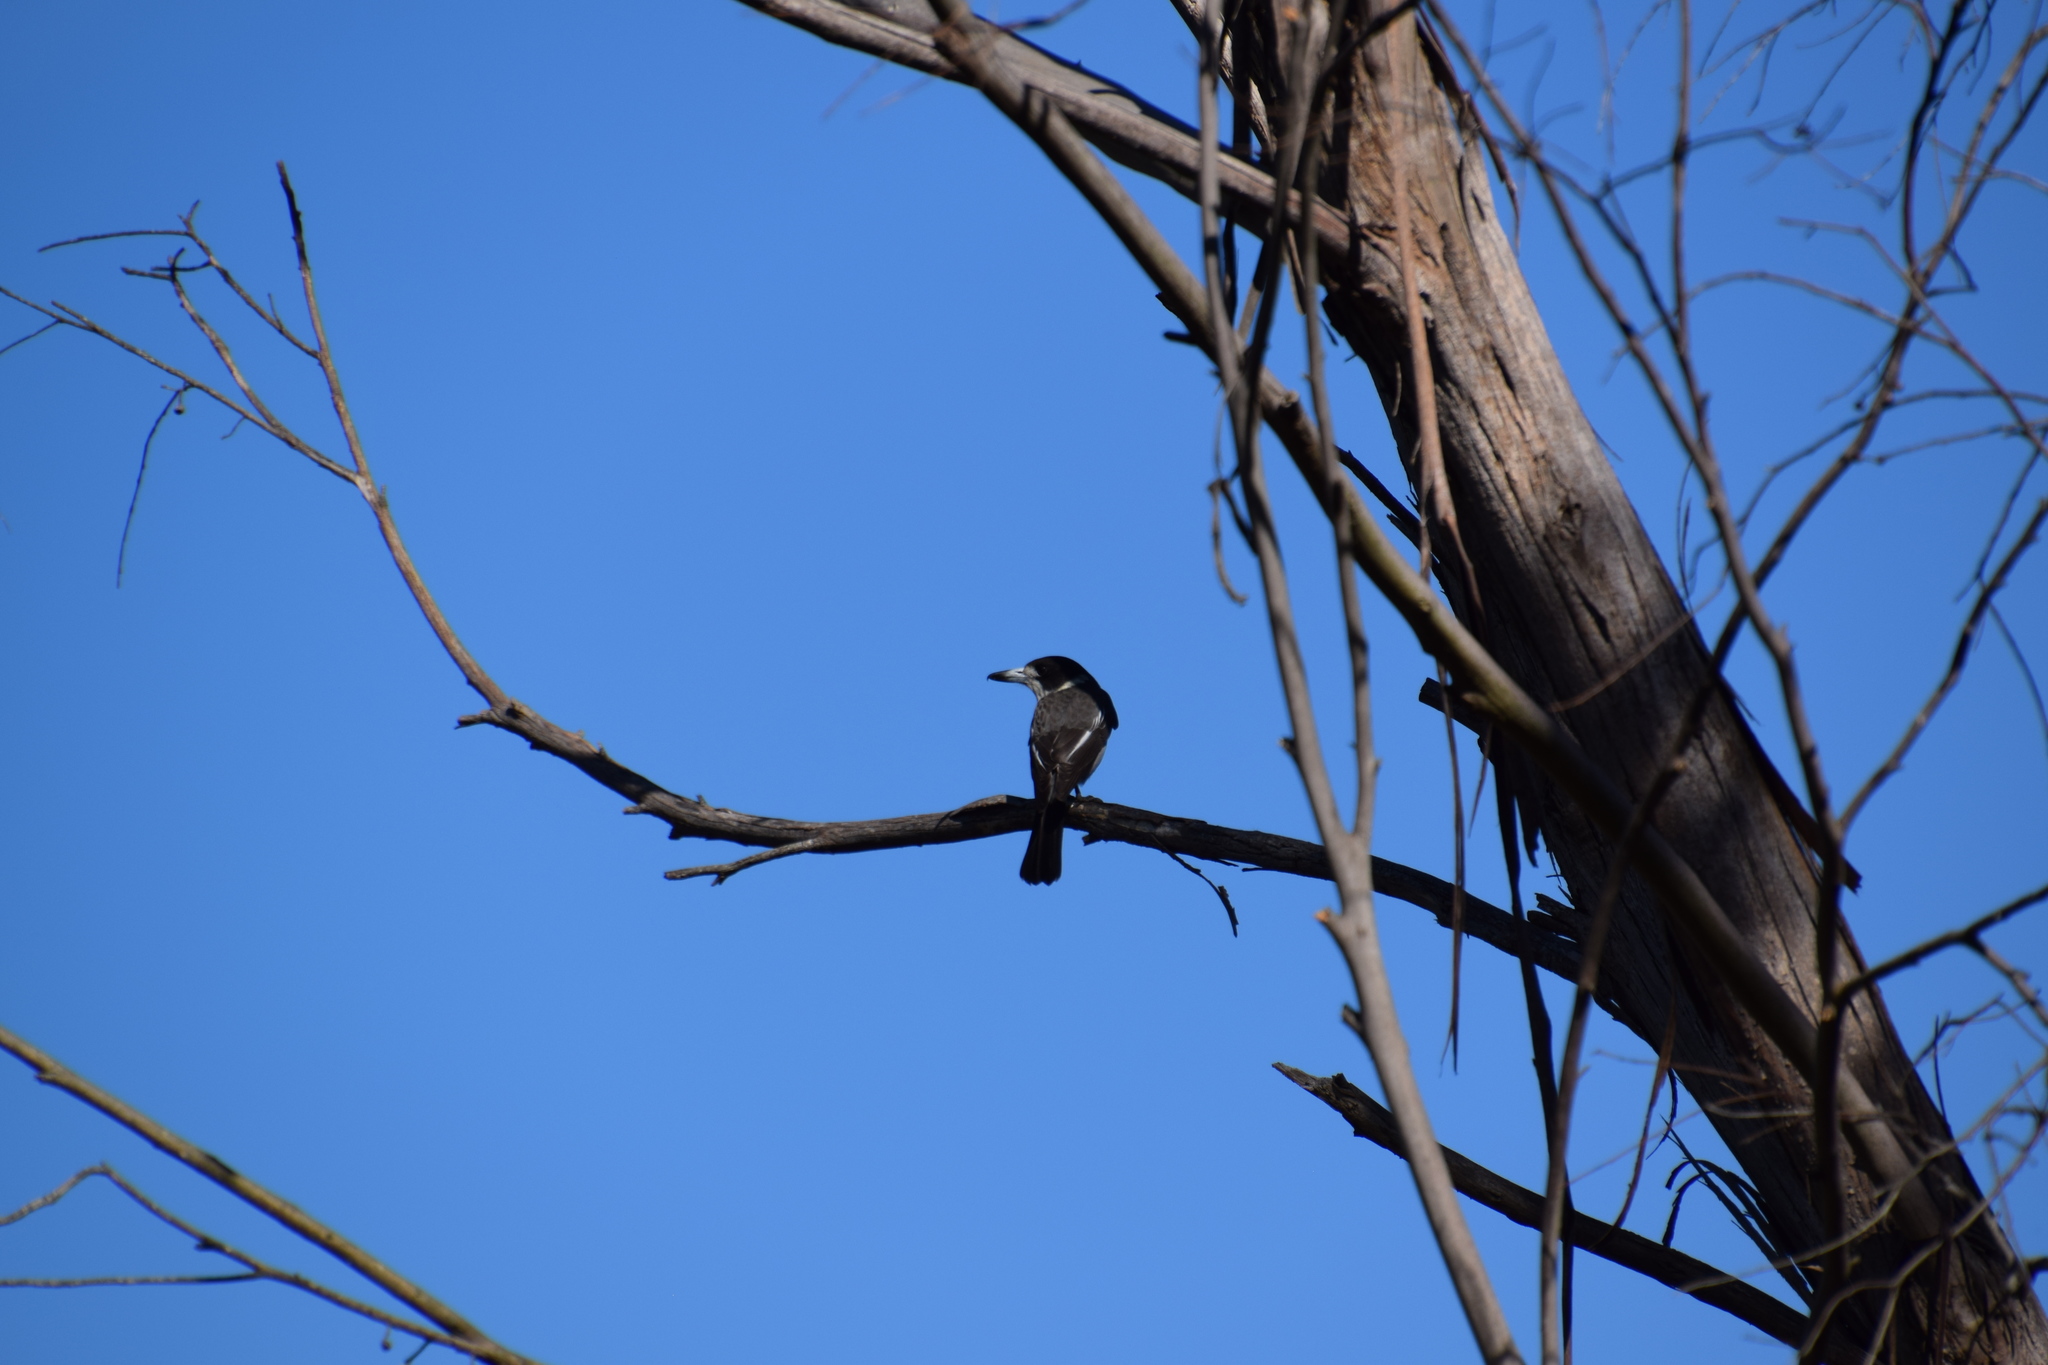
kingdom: Animalia
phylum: Chordata
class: Aves
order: Passeriformes
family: Cracticidae
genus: Cracticus
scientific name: Cracticus torquatus
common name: Grey butcherbird
